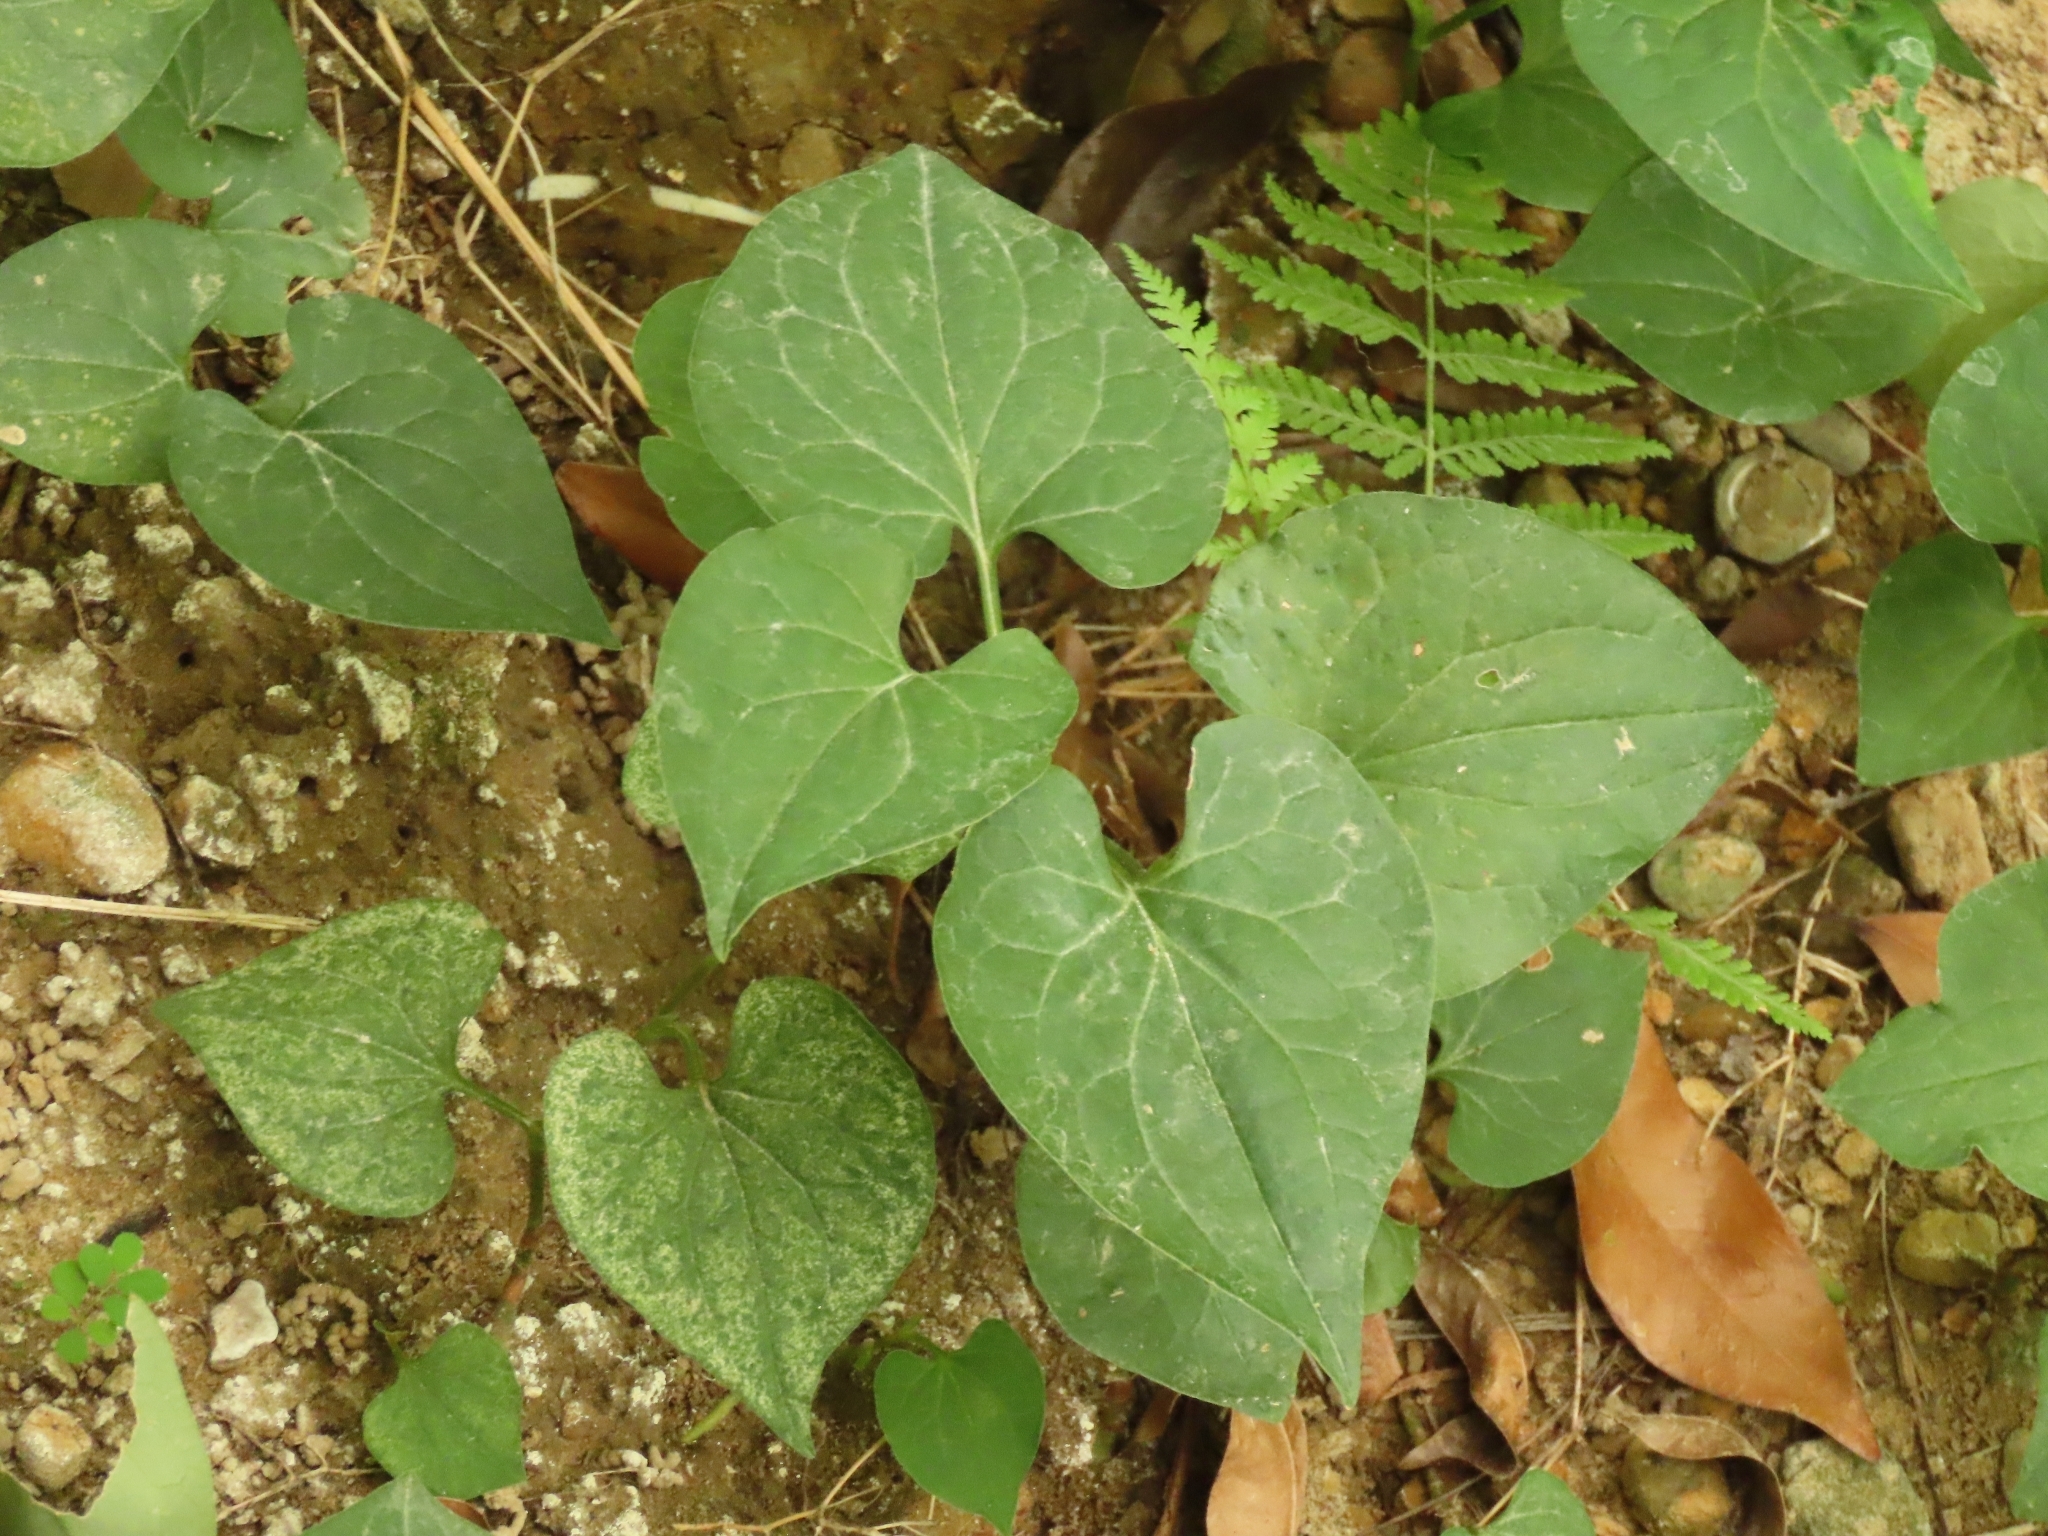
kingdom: Plantae
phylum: Tracheophyta
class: Magnoliopsida
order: Piperales
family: Saururaceae
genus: Houttuynia
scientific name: Houttuynia cordata
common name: Chameleon
